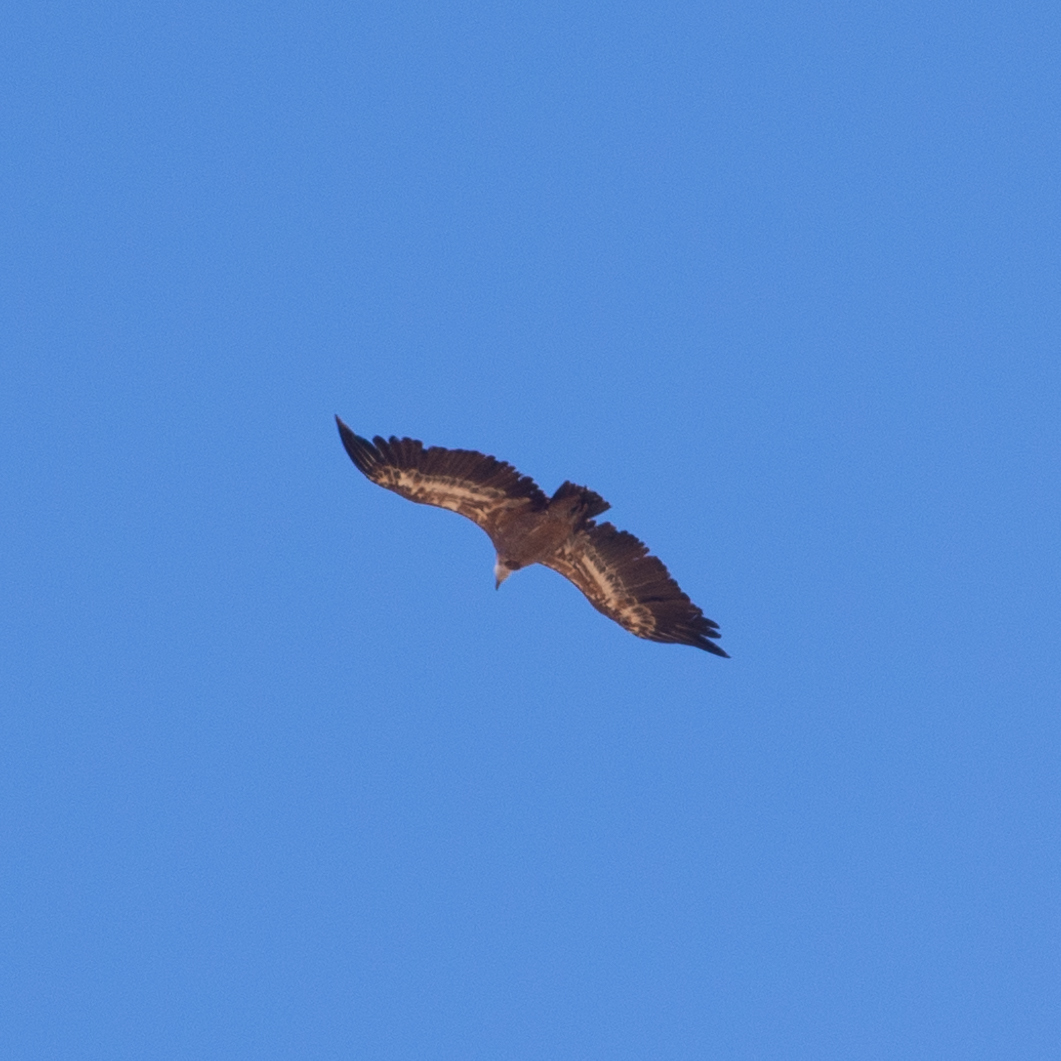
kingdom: Animalia
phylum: Chordata
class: Aves
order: Accipitriformes
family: Accipitridae
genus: Gyps
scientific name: Gyps fulvus
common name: Griffon vulture
